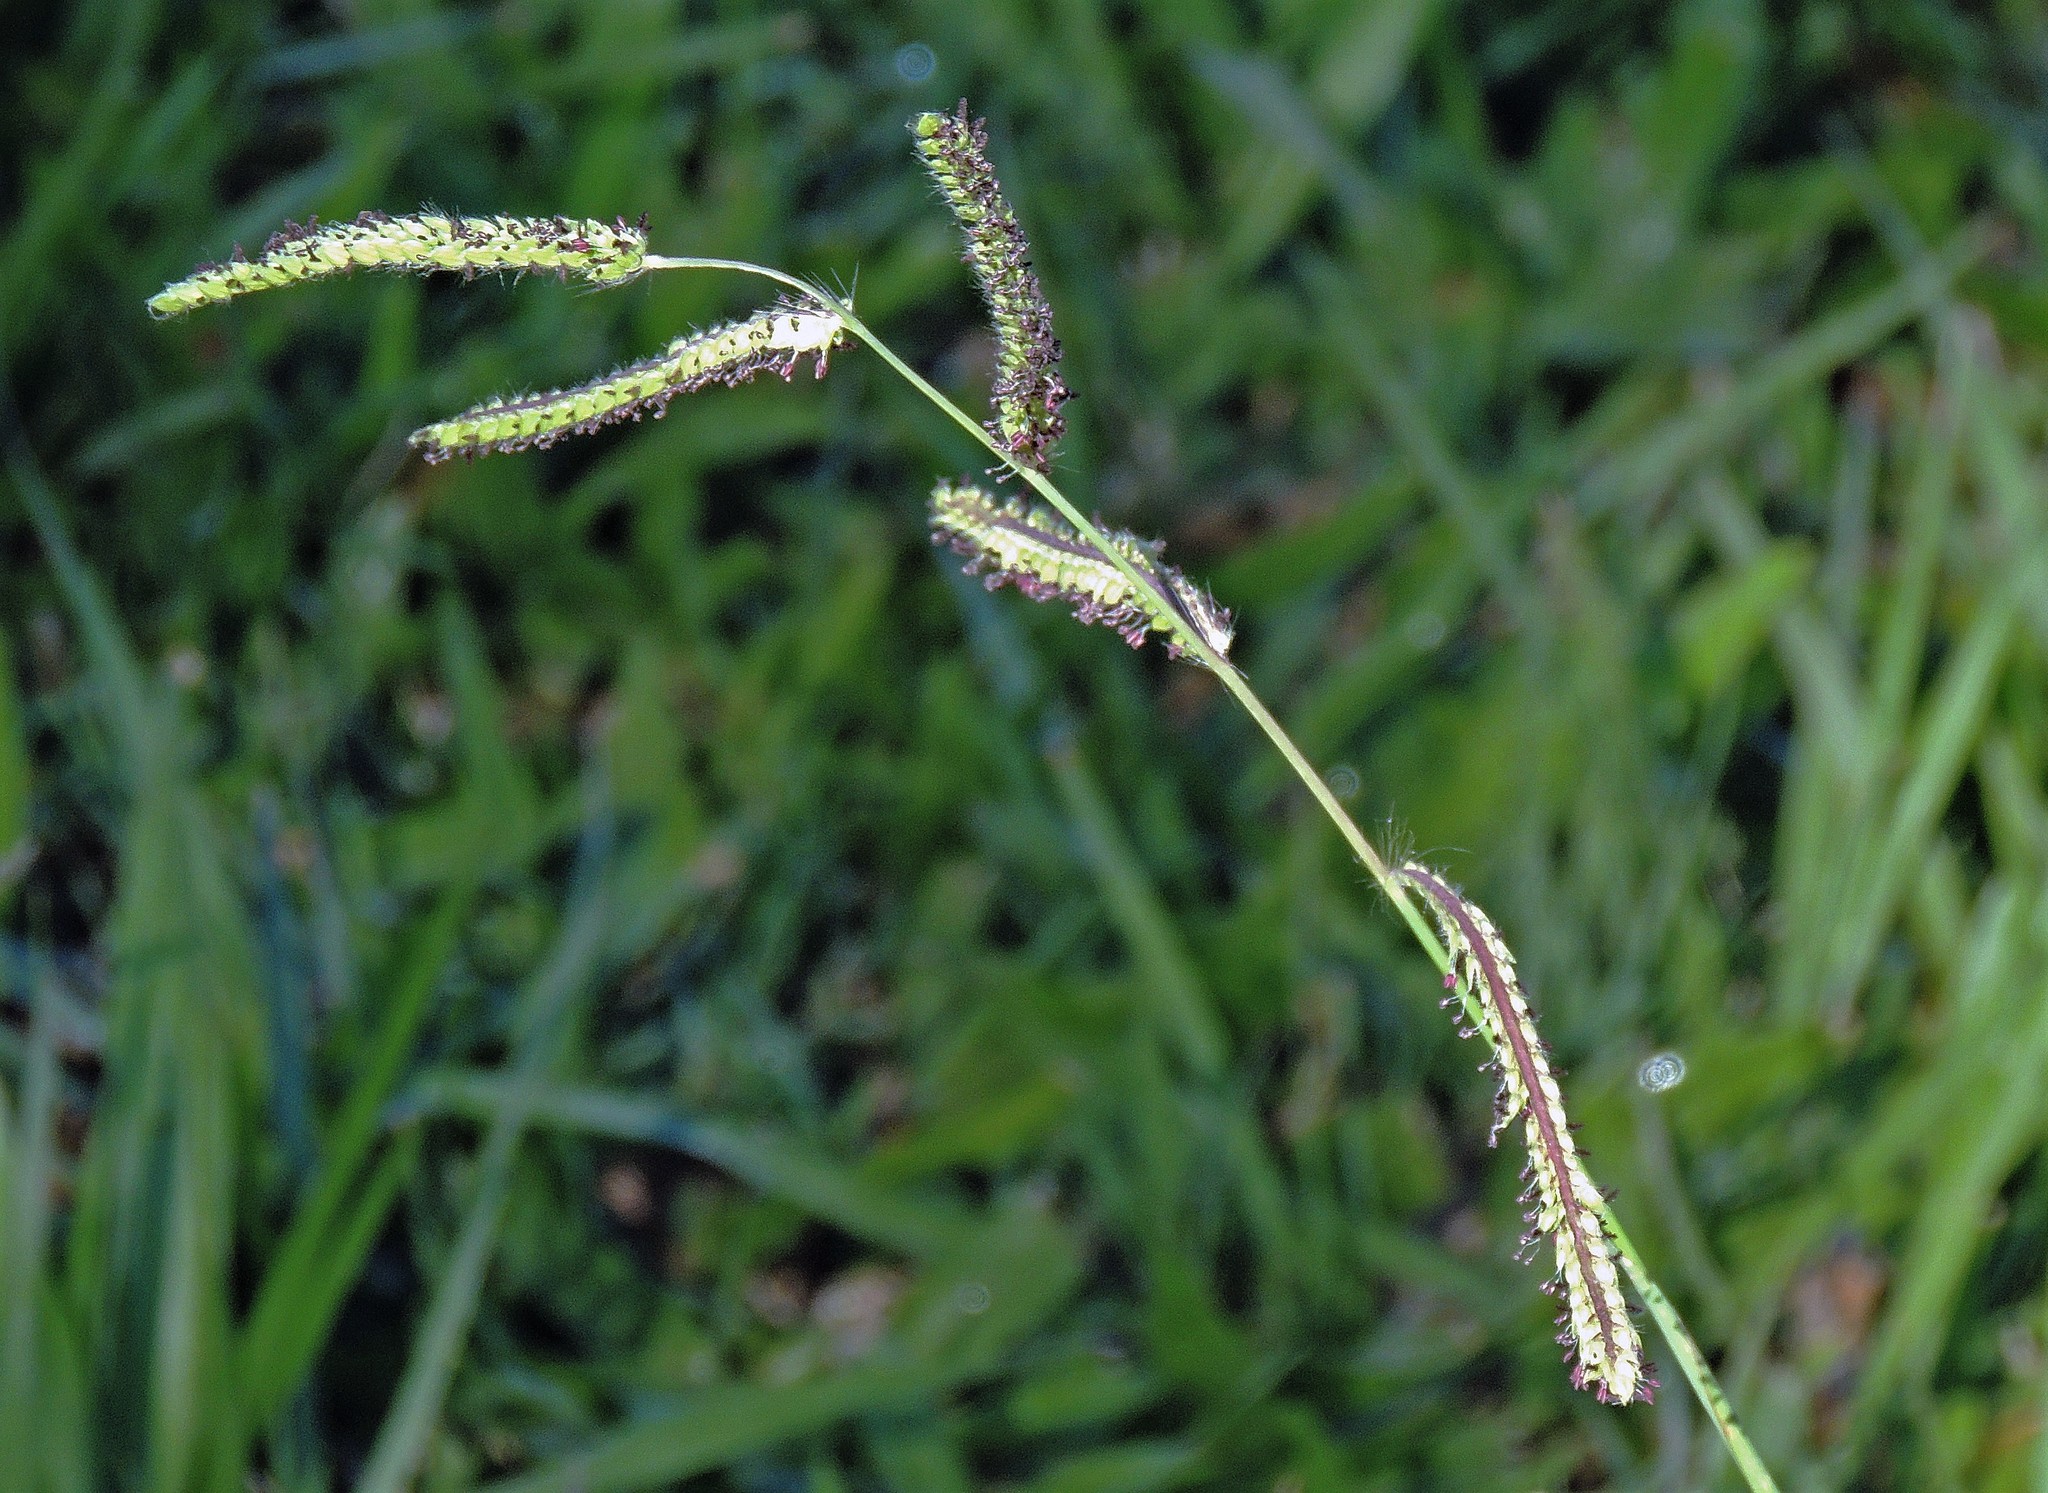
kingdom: Plantae
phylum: Tracheophyta
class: Liliopsida
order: Poales
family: Poaceae
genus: Paspalum
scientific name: Paspalum dilatatum
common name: Dallisgrass
